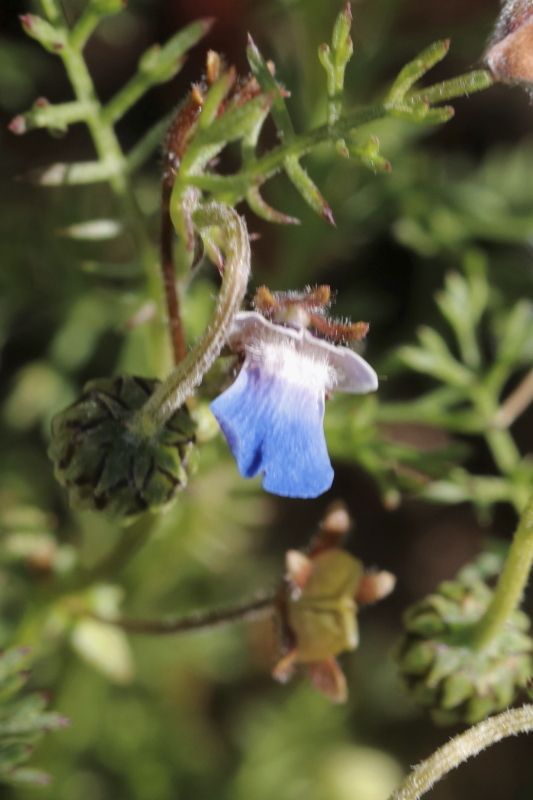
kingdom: Plantae
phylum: Tracheophyta
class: Magnoliopsida
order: Lamiales
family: Scrophulariaceae
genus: Nemesia
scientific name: Nemesia barbata
